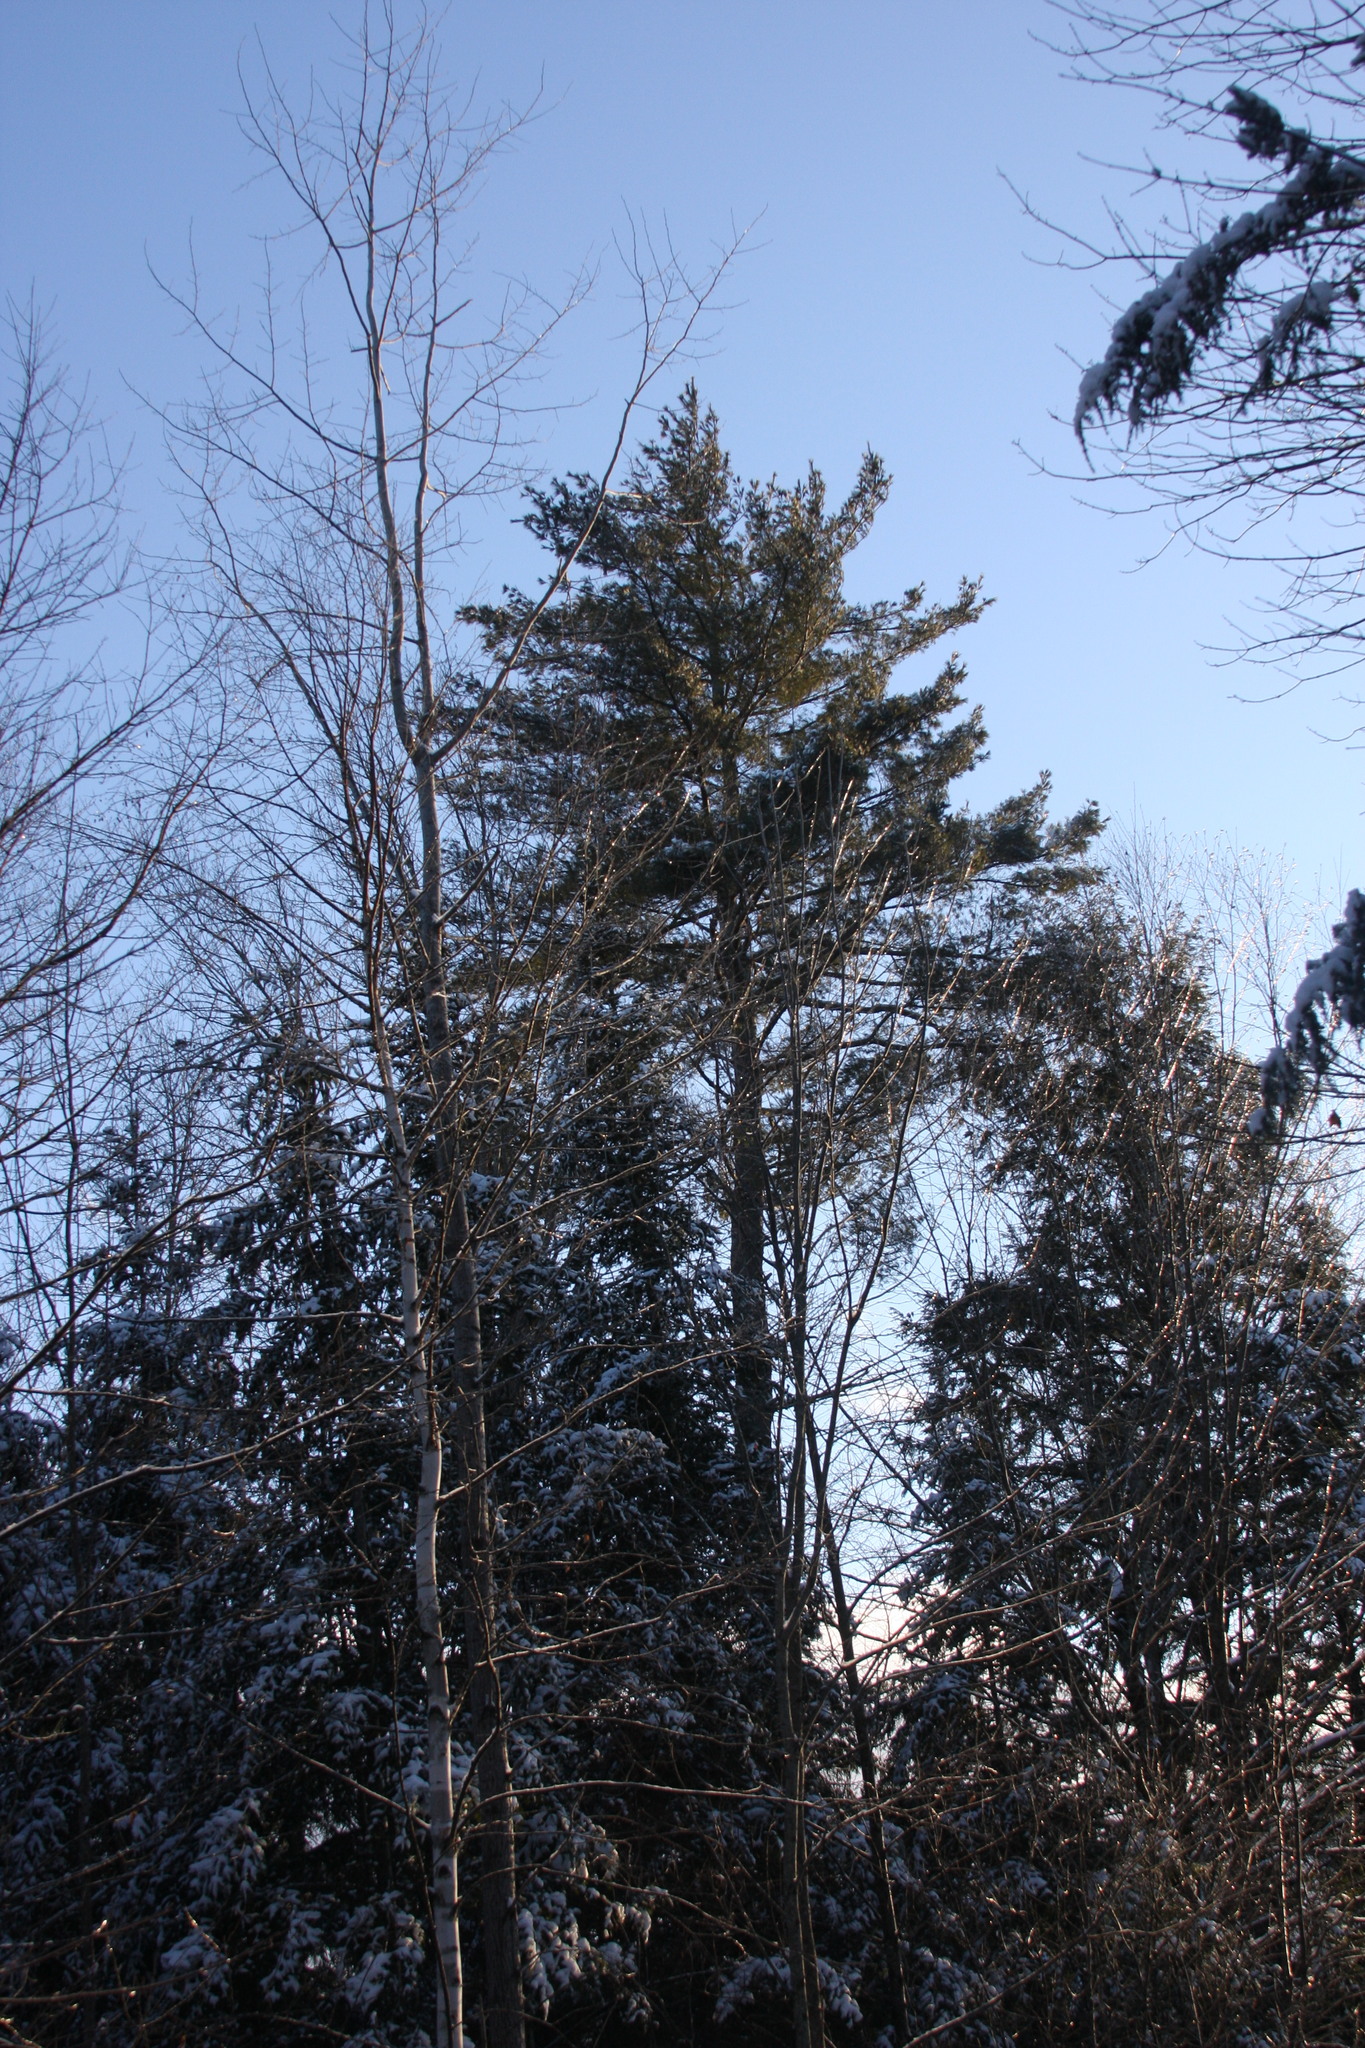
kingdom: Plantae
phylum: Tracheophyta
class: Pinopsida
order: Pinales
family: Pinaceae
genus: Pinus
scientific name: Pinus strobus
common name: Weymouth pine
